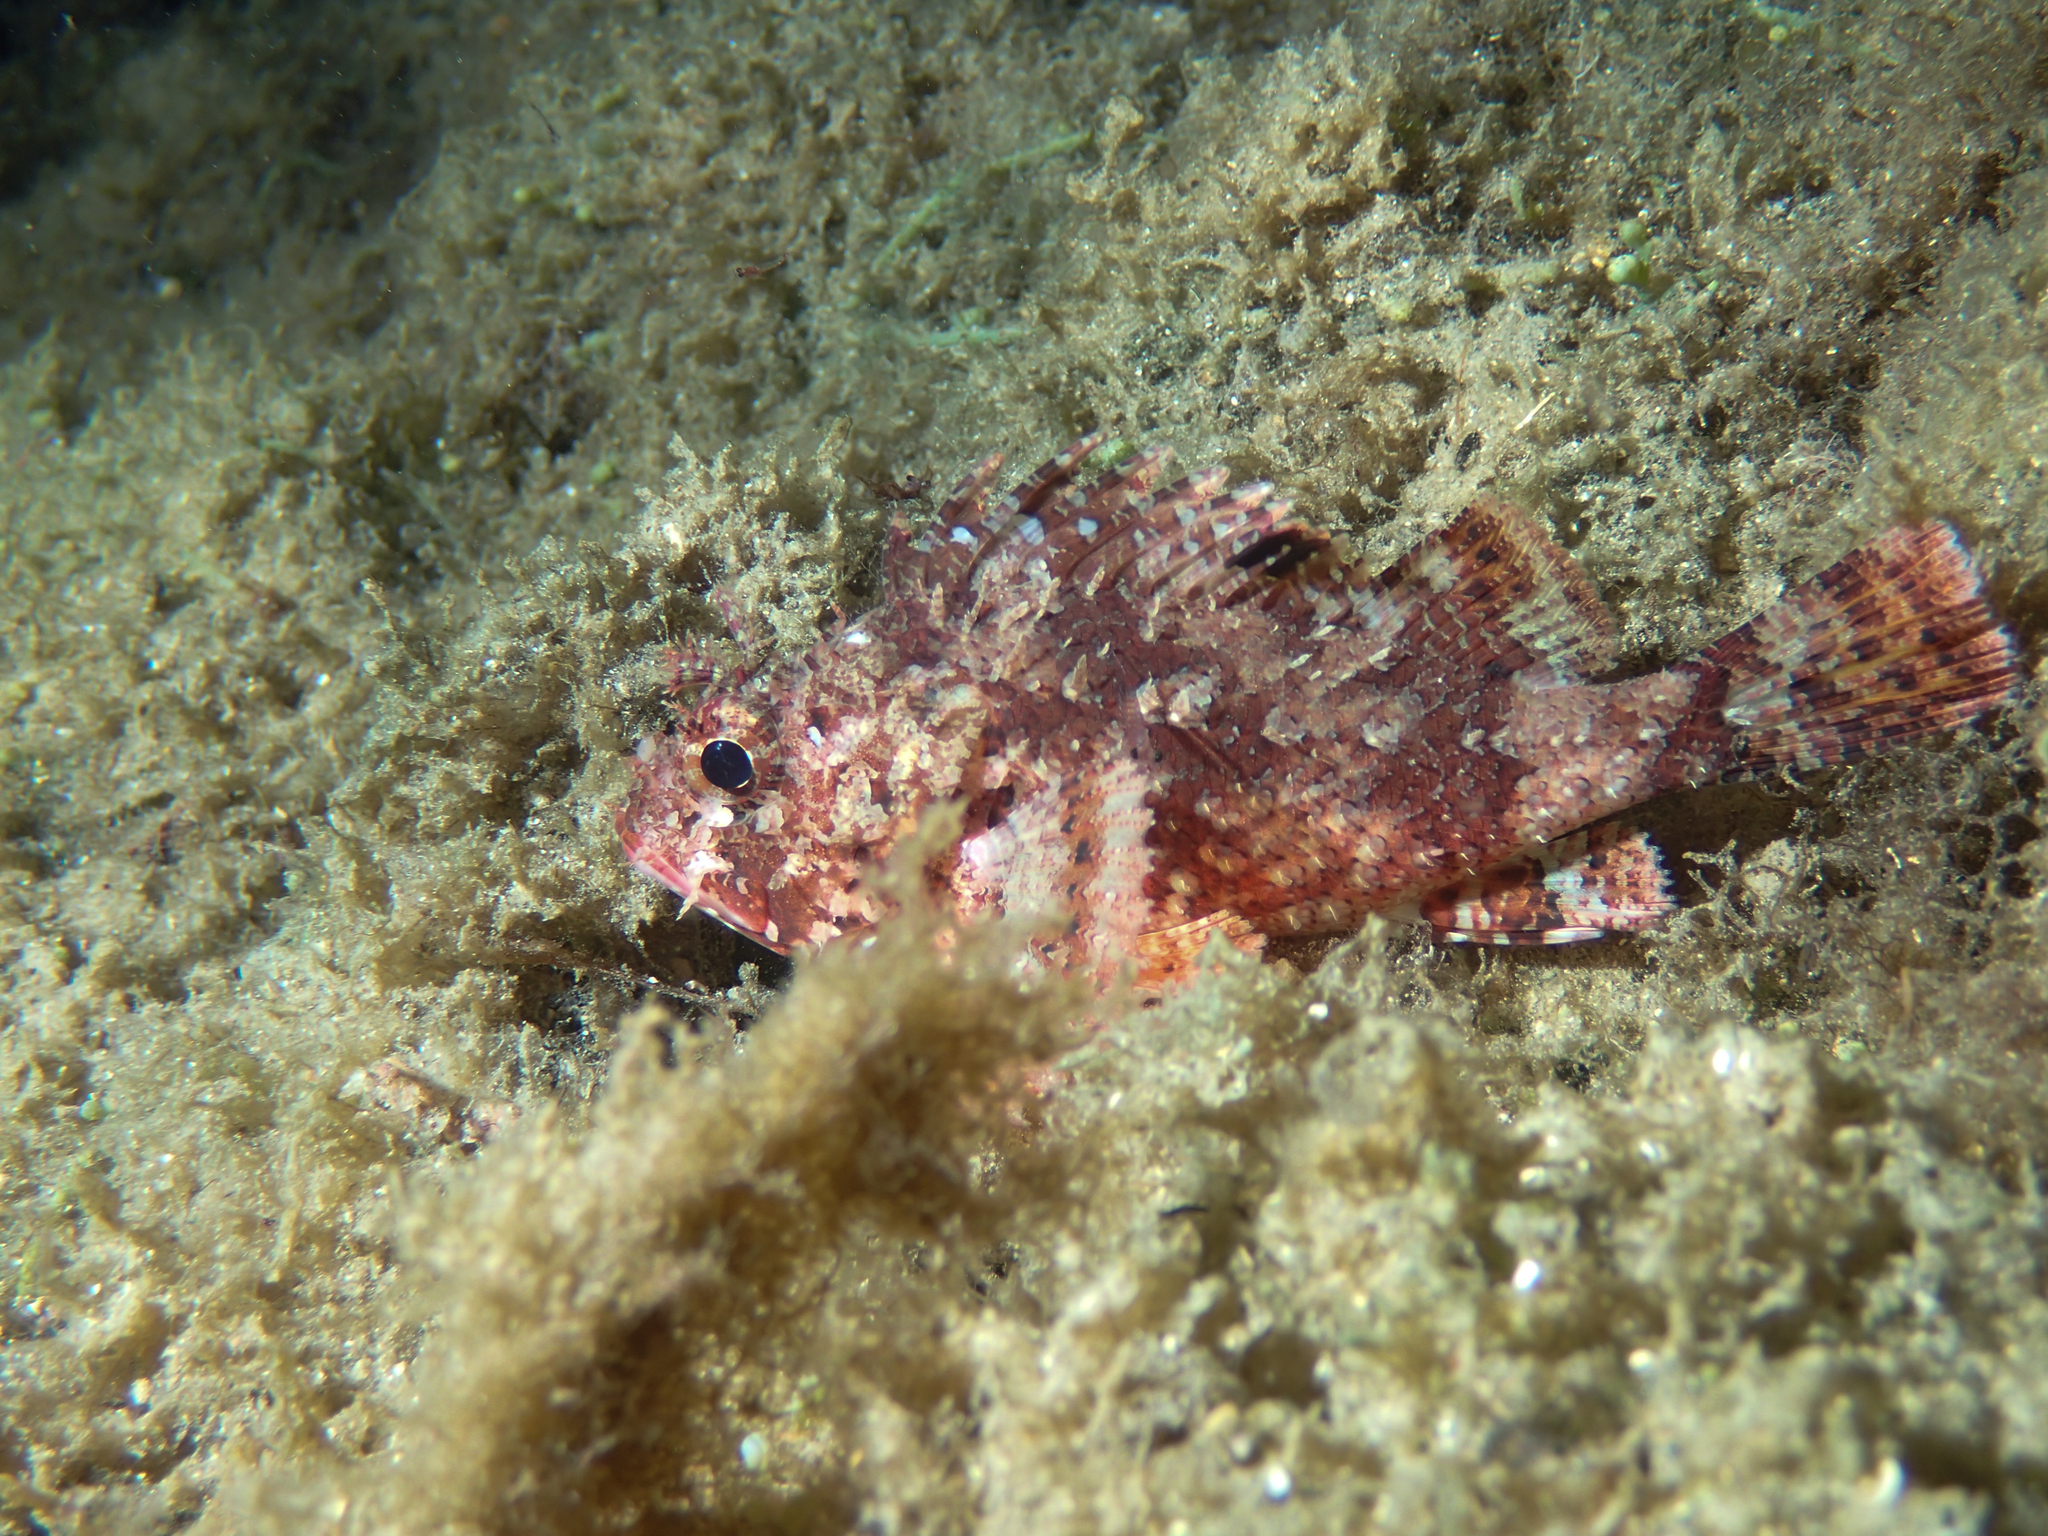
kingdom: Animalia
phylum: Chordata
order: Scorpaeniformes
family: Scorpaenidae
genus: Scorpaena
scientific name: Scorpaena notata
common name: Small red scorpionfish
